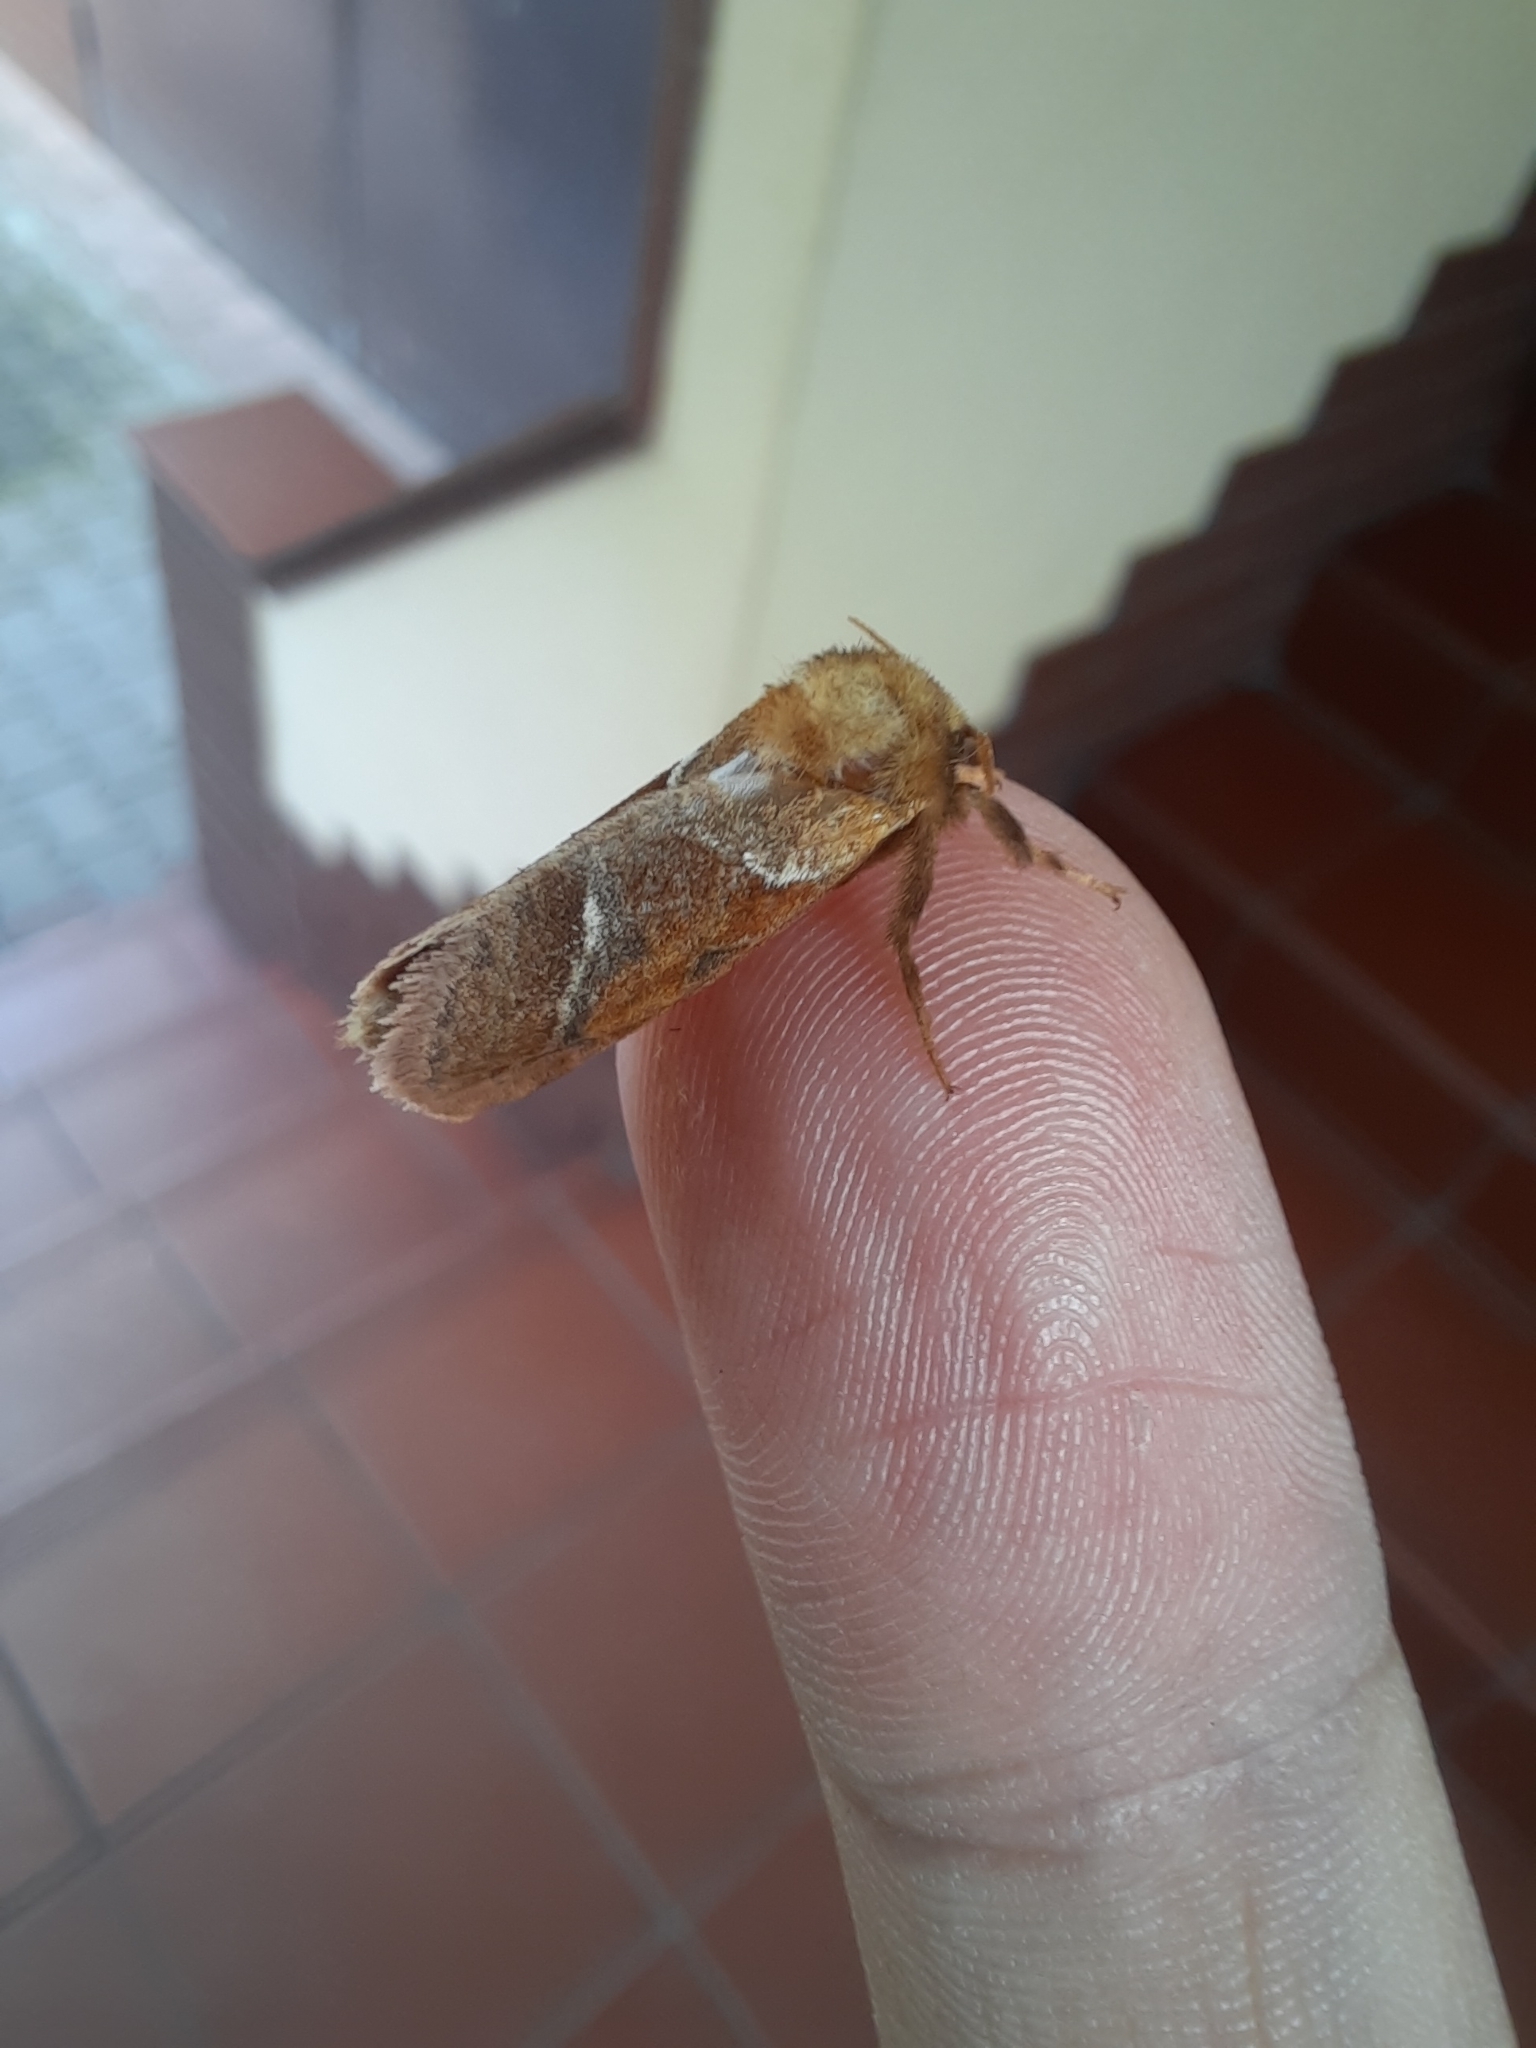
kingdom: Animalia
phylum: Arthropoda
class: Insecta
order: Lepidoptera
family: Hepialidae
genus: Triodia
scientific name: Triodia sylvina
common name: Orange swift
